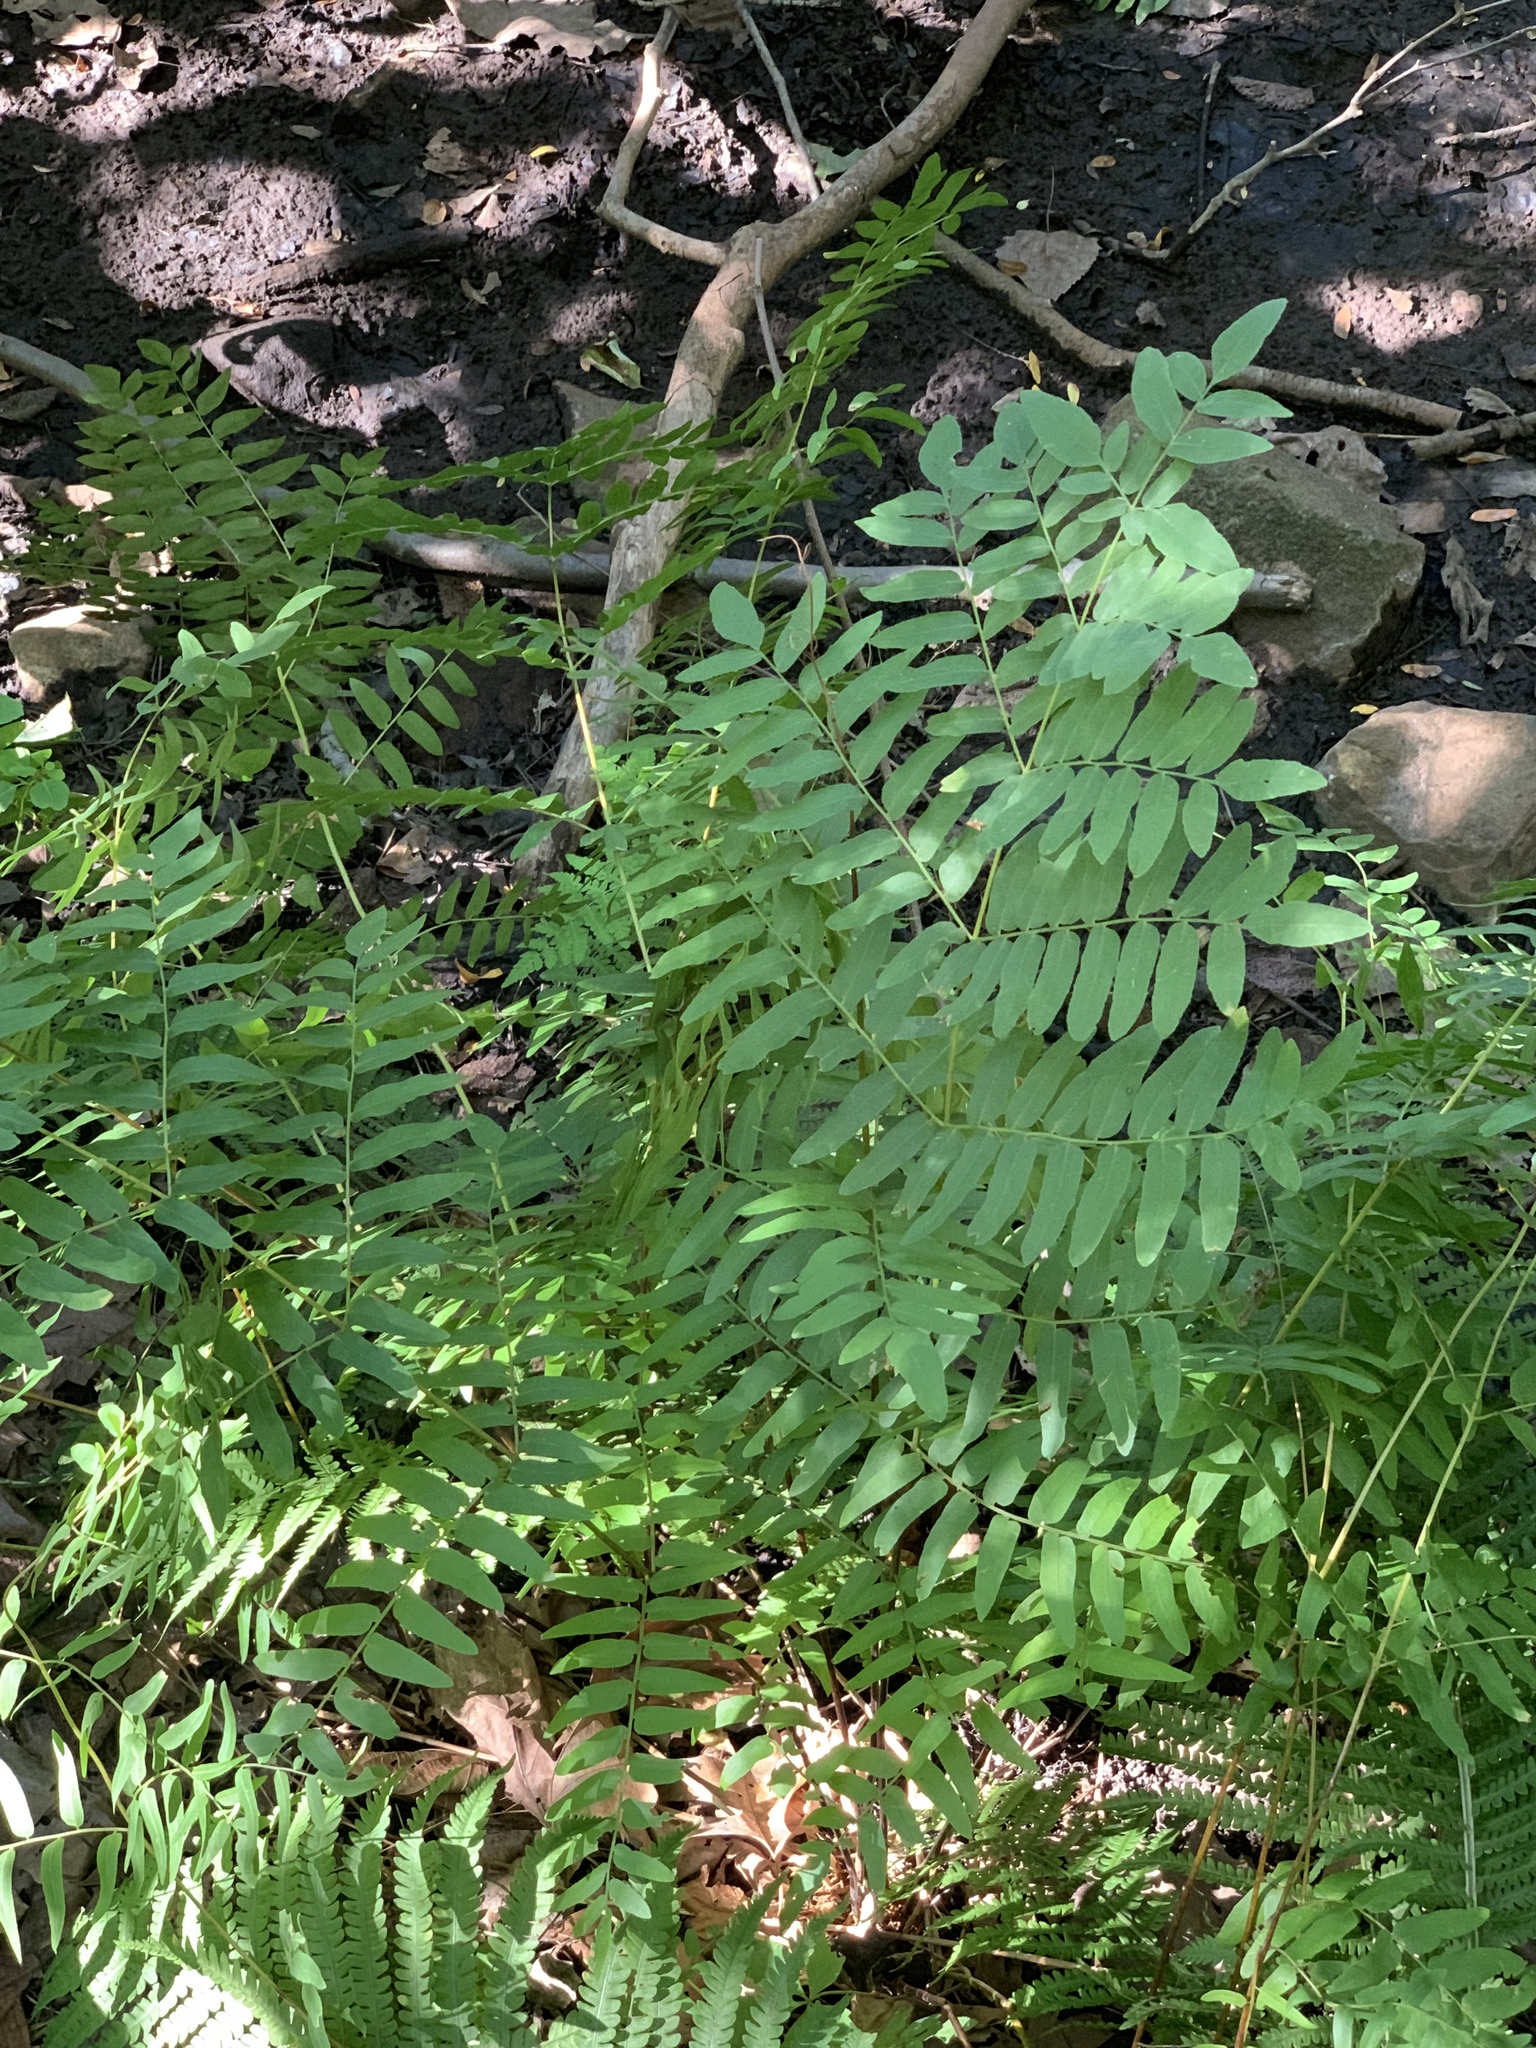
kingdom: Plantae
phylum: Tracheophyta
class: Polypodiopsida
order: Osmundales
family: Osmundaceae
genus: Osmunda
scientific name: Osmunda spectabilis
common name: American royal fern
